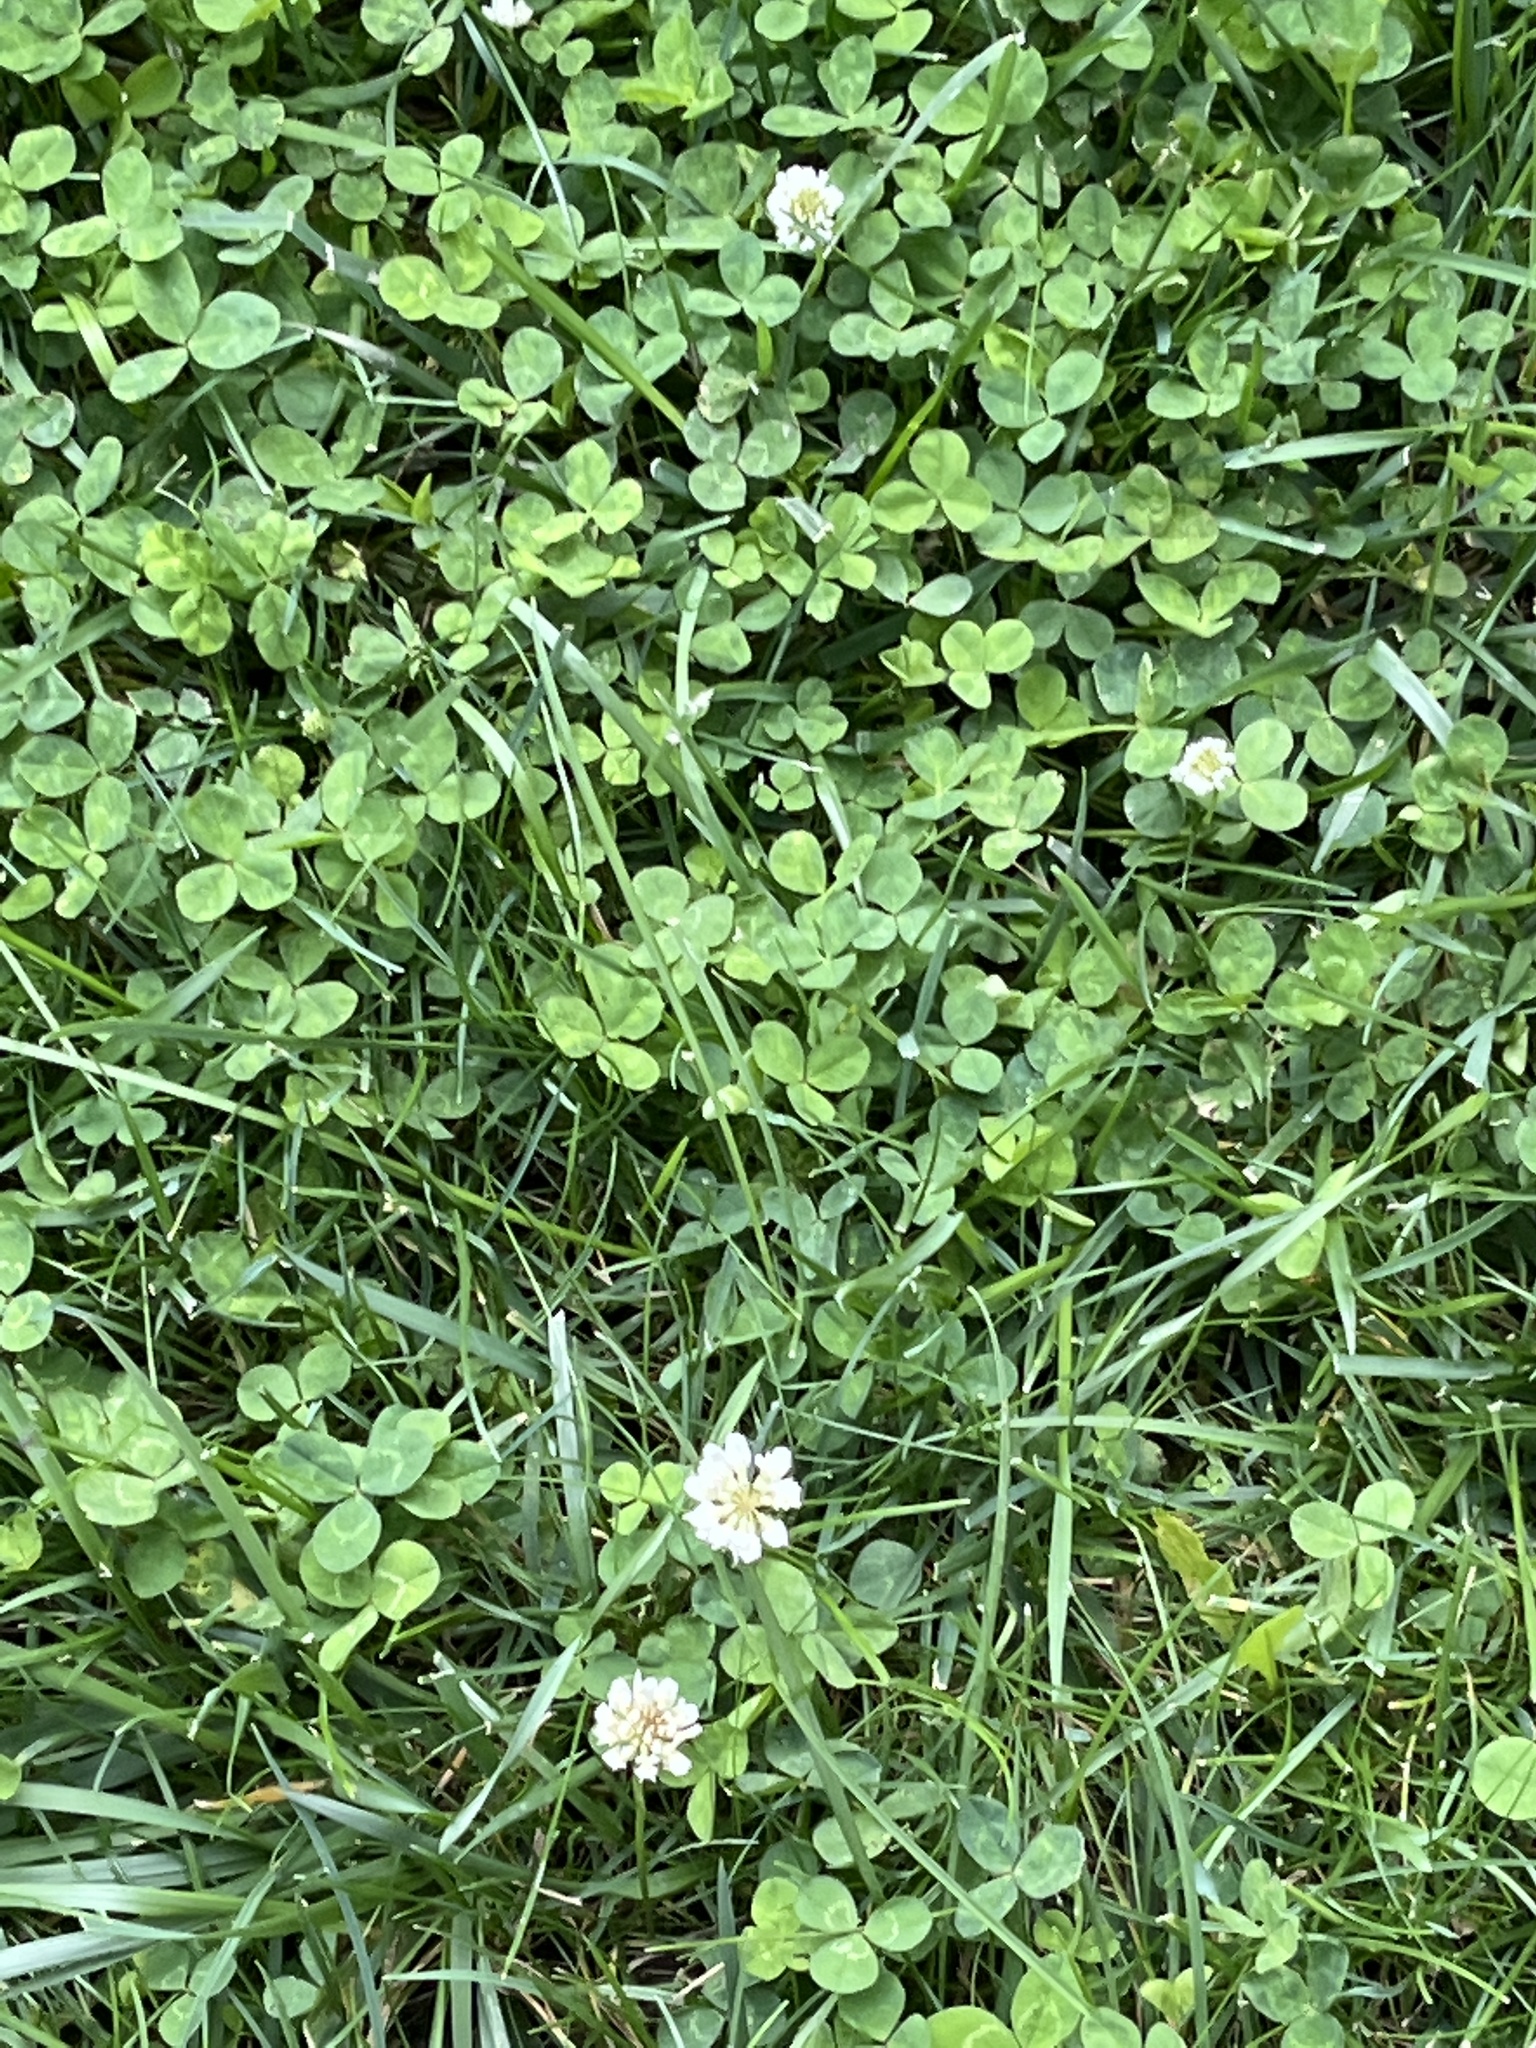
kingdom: Plantae
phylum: Tracheophyta
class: Magnoliopsida
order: Fabales
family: Fabaceae
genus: Trifolium
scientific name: Trifolium repens
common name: White clover
